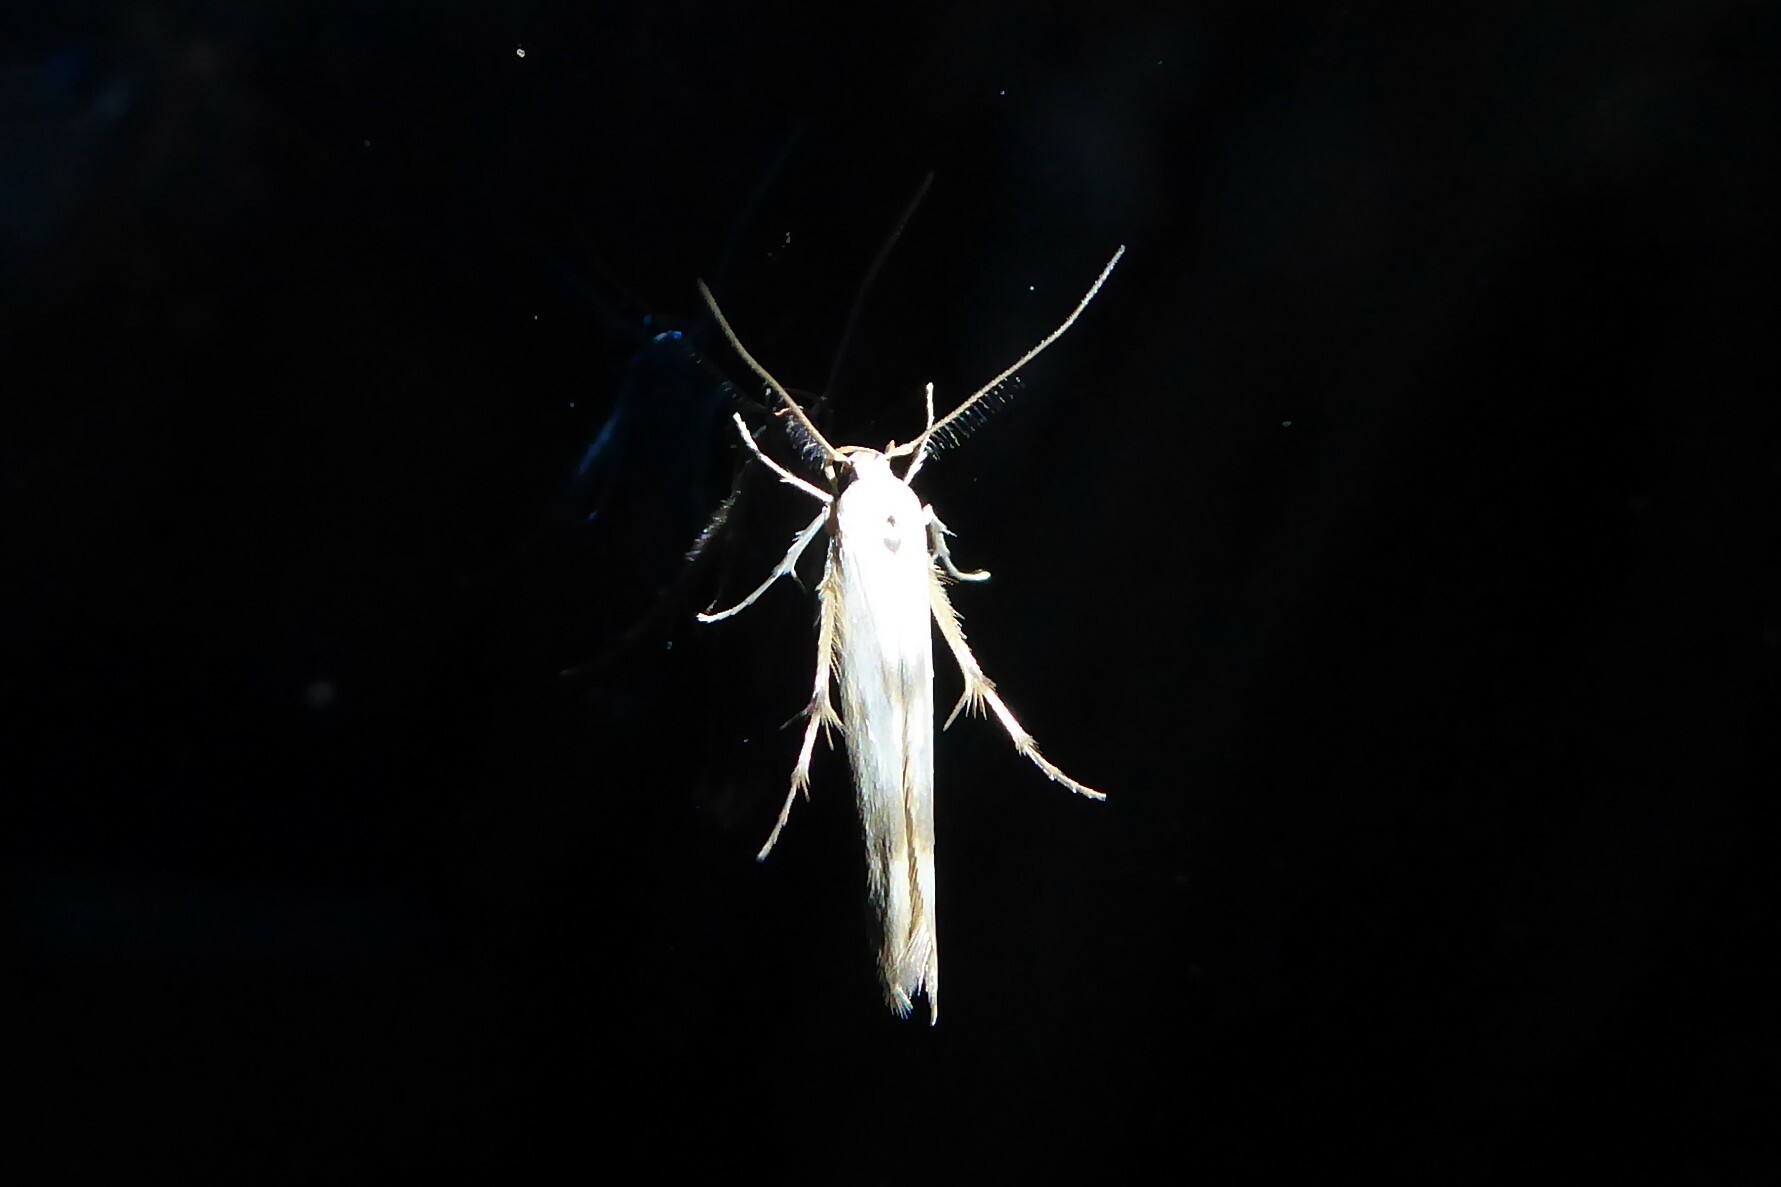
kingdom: Animalia
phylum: Arthropoda
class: Insecta
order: Lepidoptera
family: Stathmopodidae
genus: Stathmopoda
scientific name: Stathmopoda aposema
